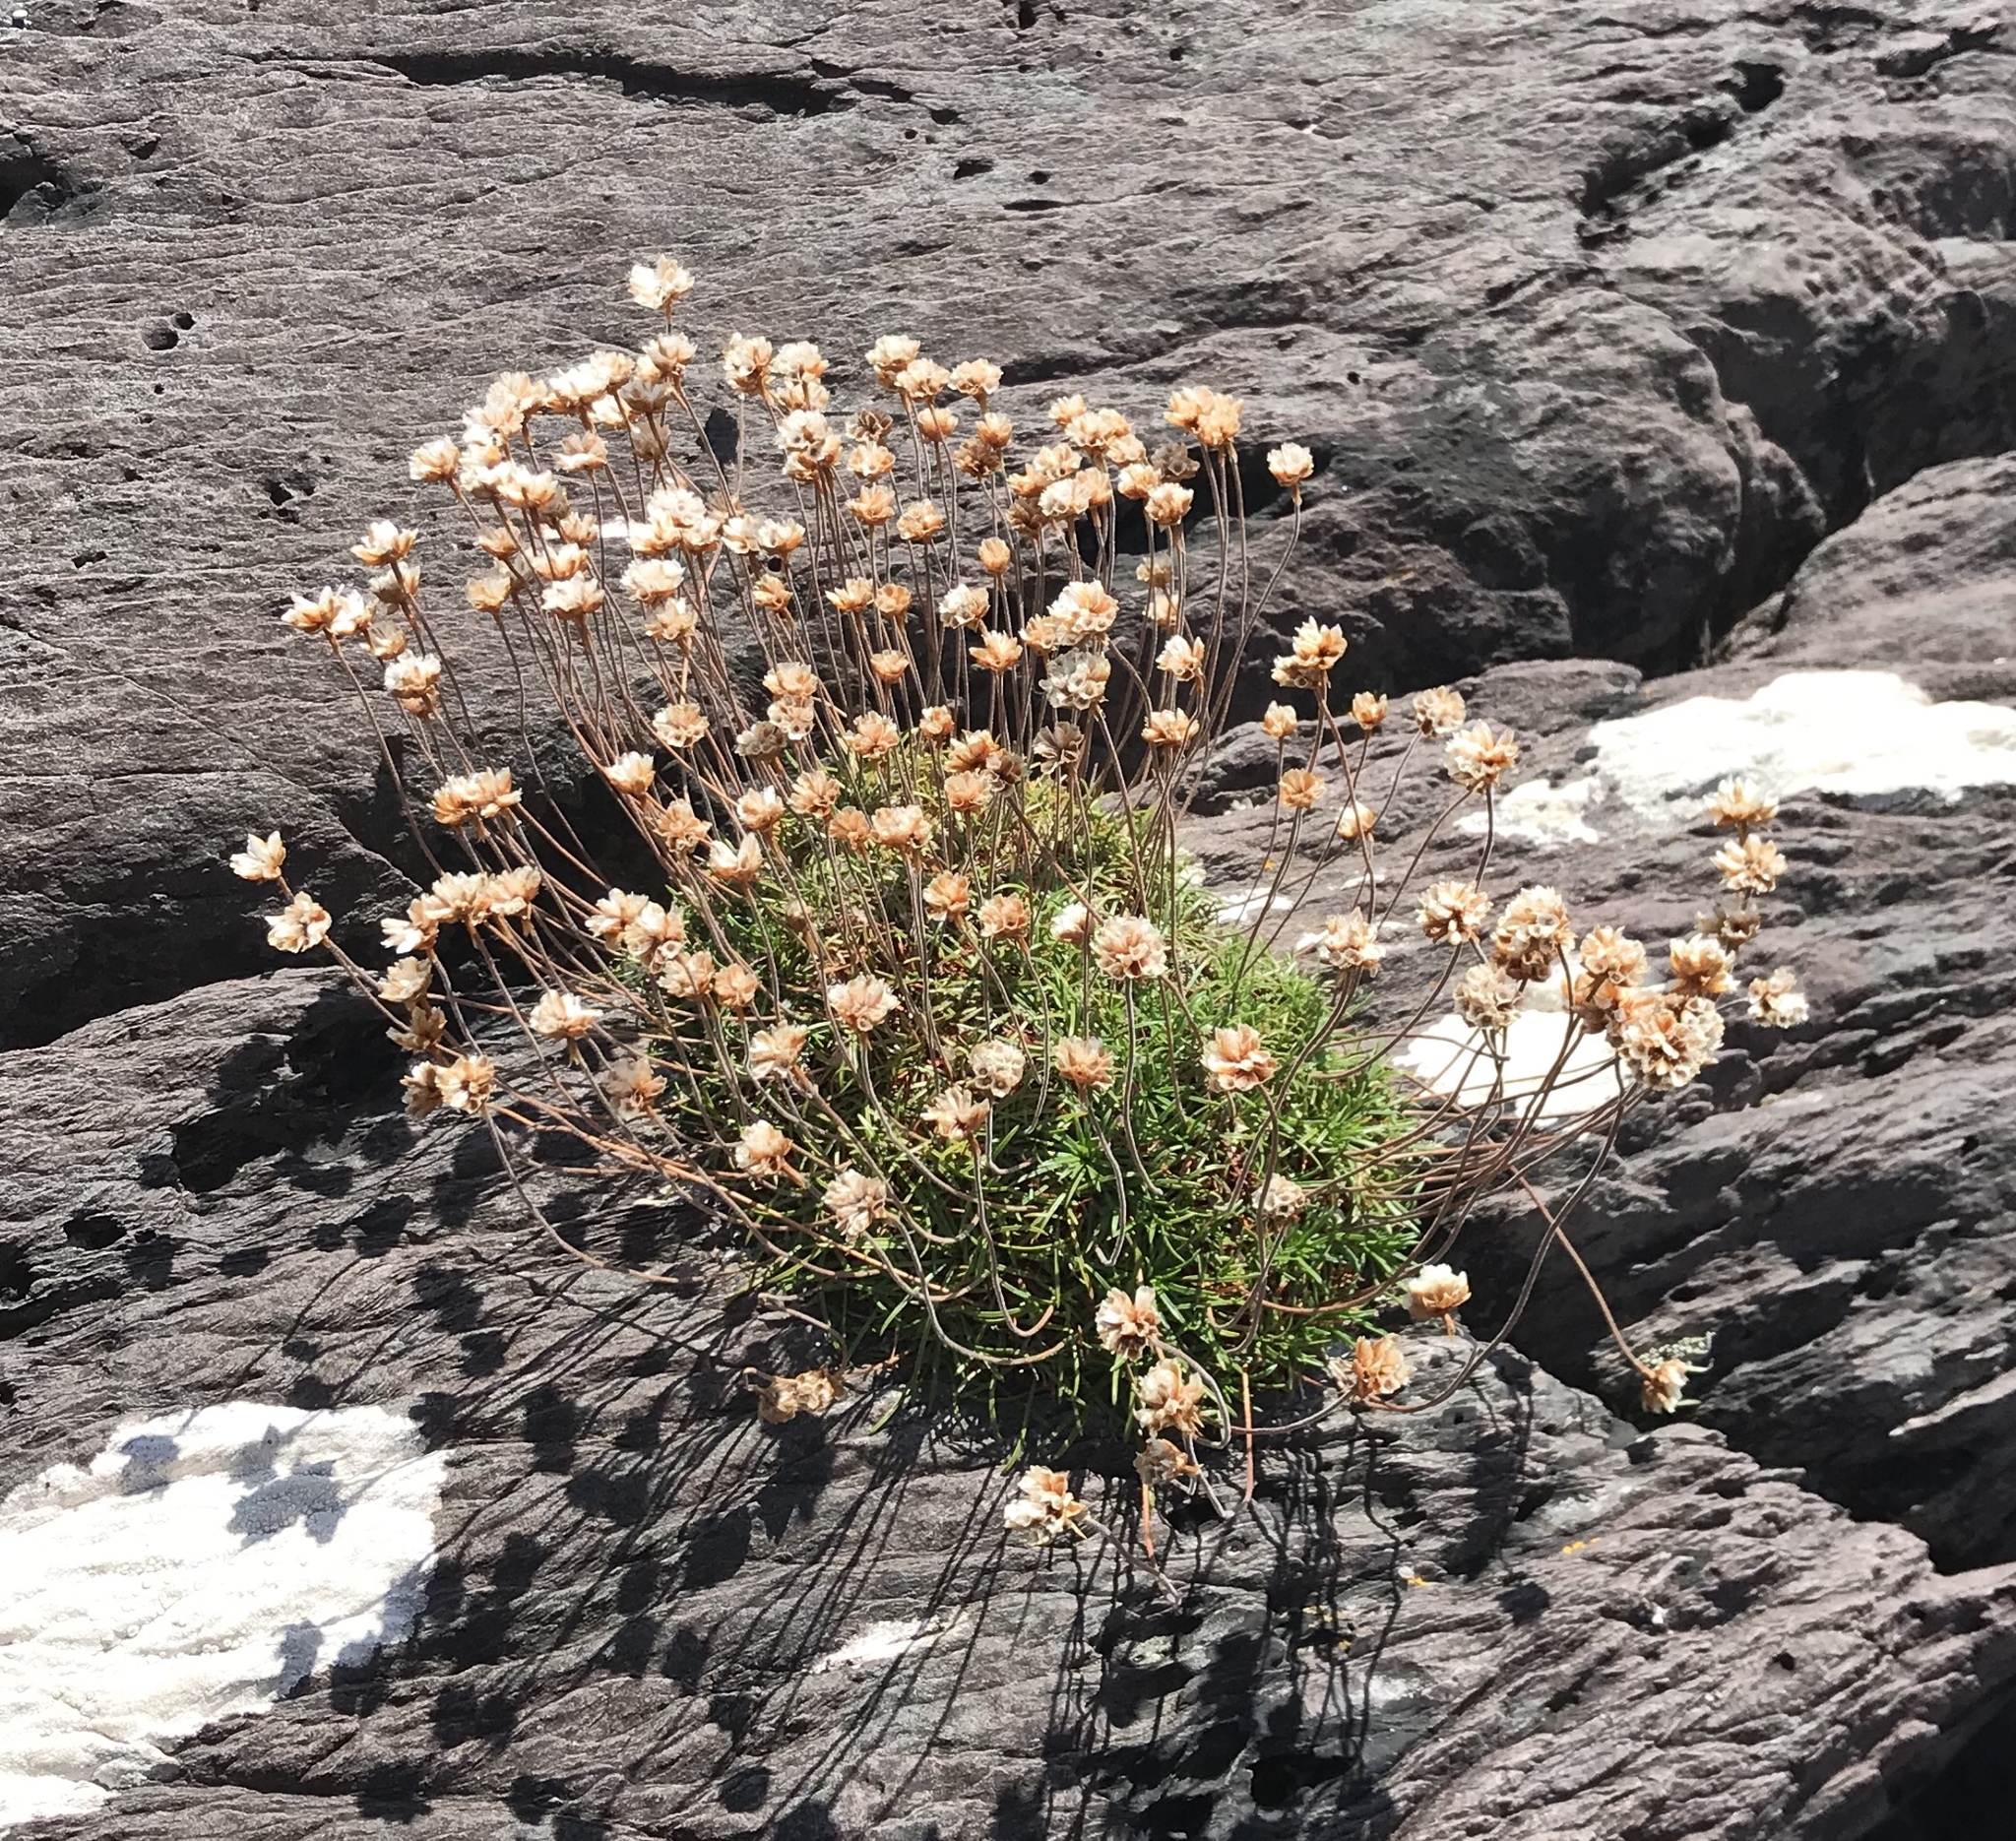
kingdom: Plantae
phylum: Tracheophyta
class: Magnoliopsida
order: Caryophyllales
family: Plumbaginaceae
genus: Armeria
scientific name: Armeria maritima
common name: Thrift
